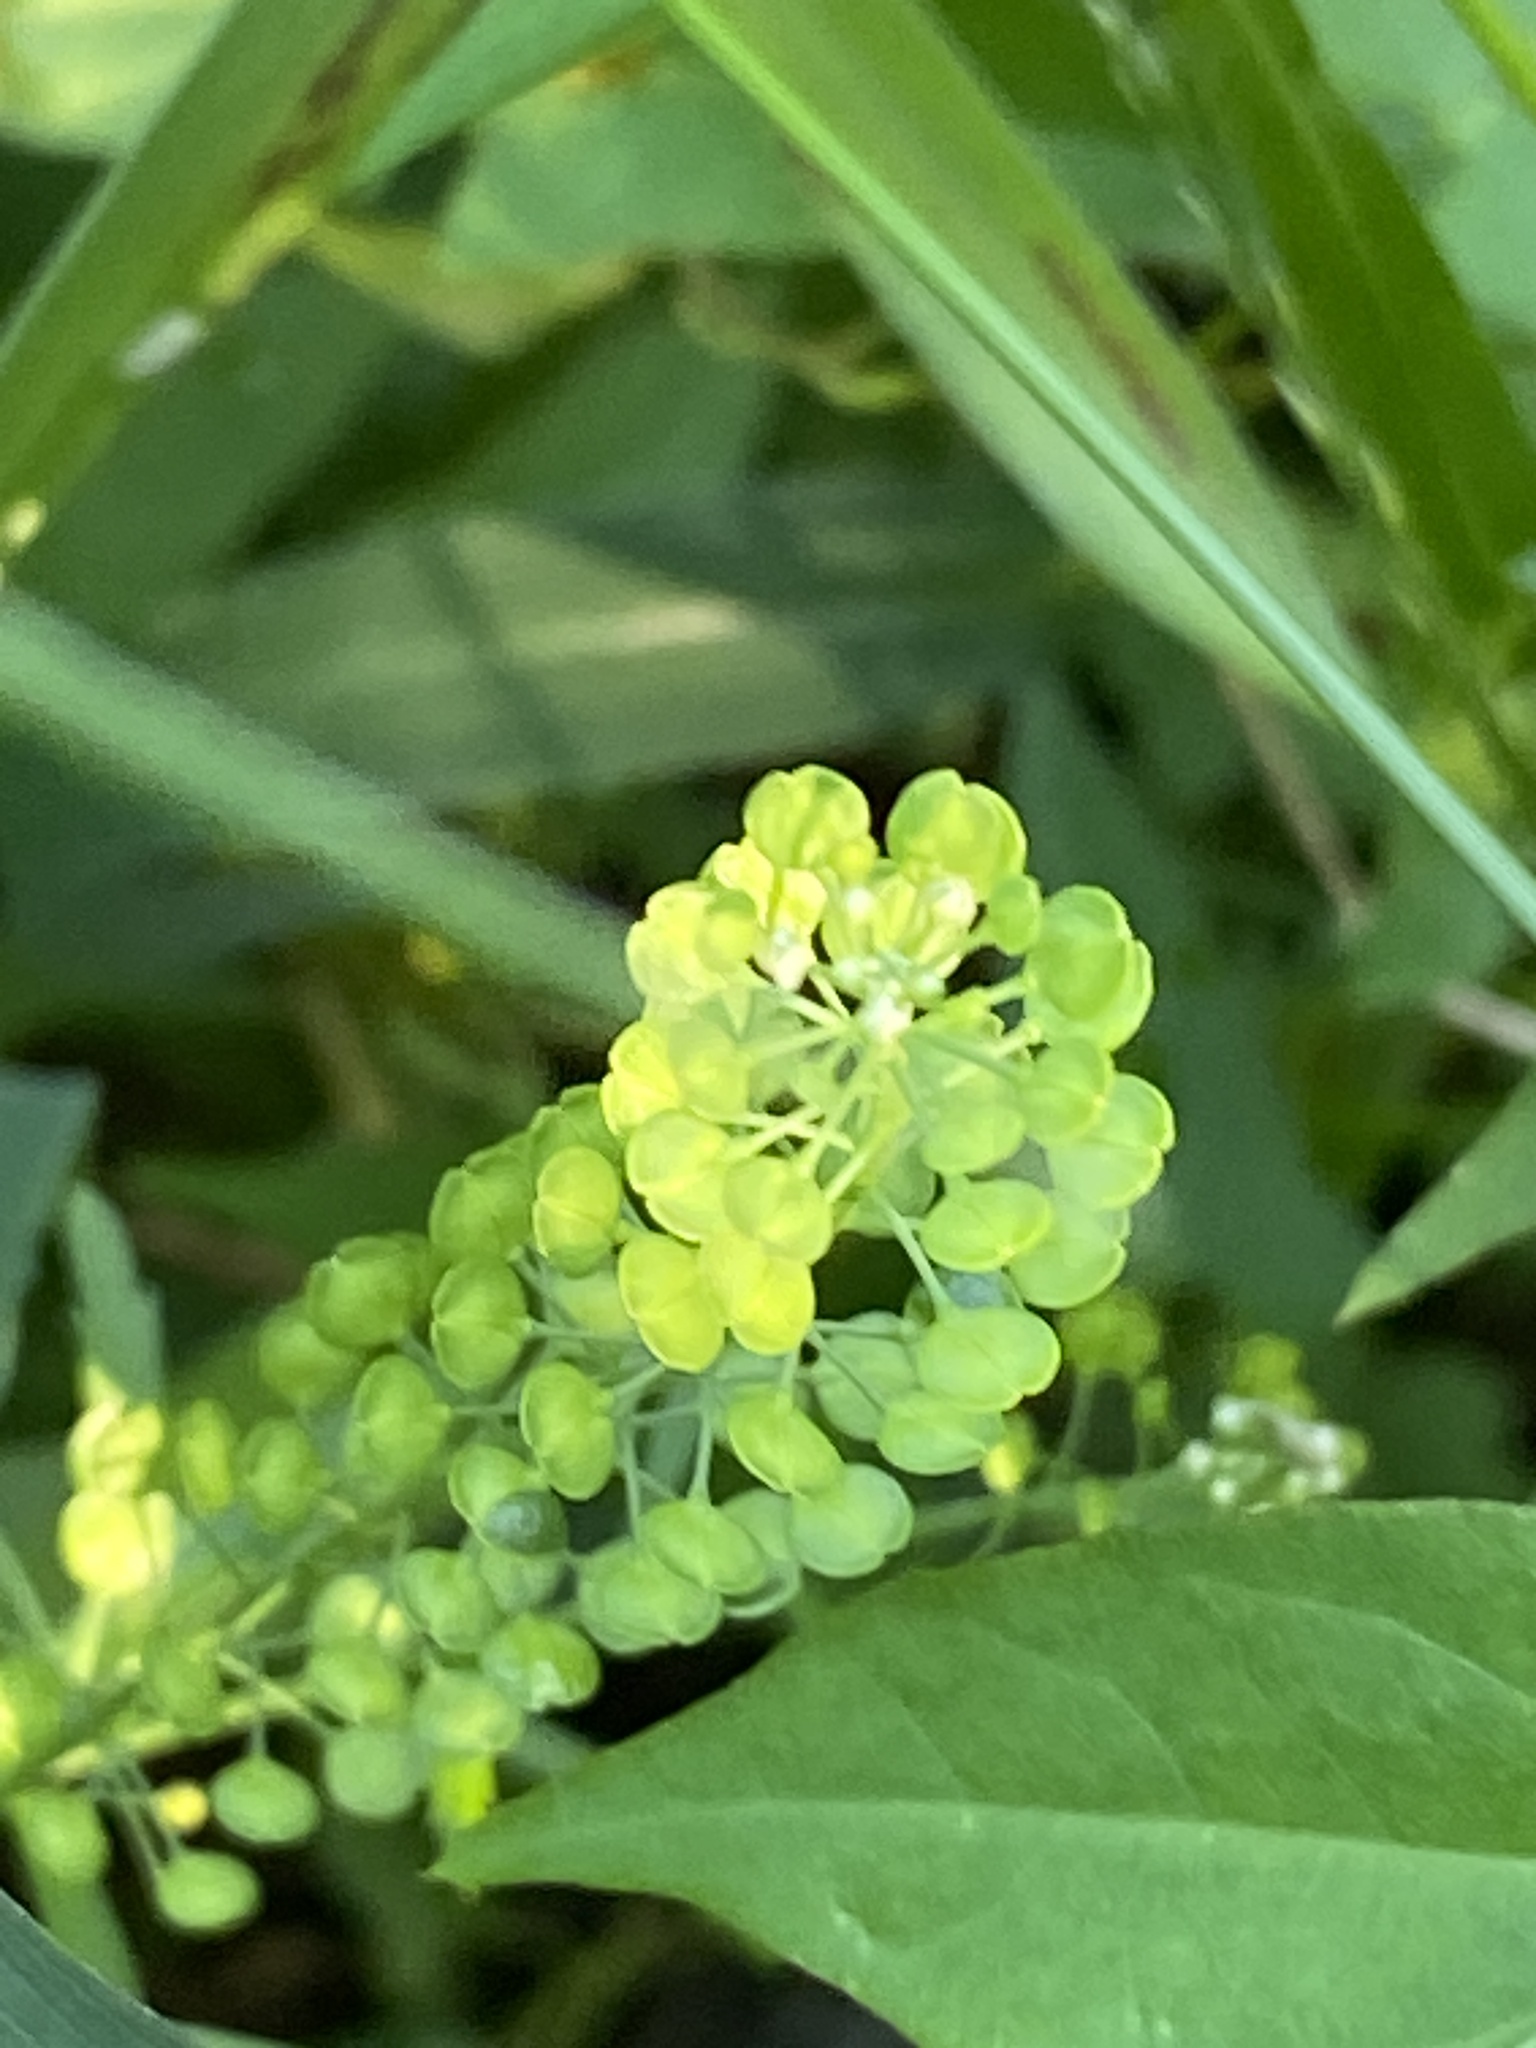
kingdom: Plantae
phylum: Tracheophyta
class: Magnoliopsida
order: Brassicales
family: Brassicaceae
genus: Lepidium
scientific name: Lepidium virginicum
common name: Least pepperwort
